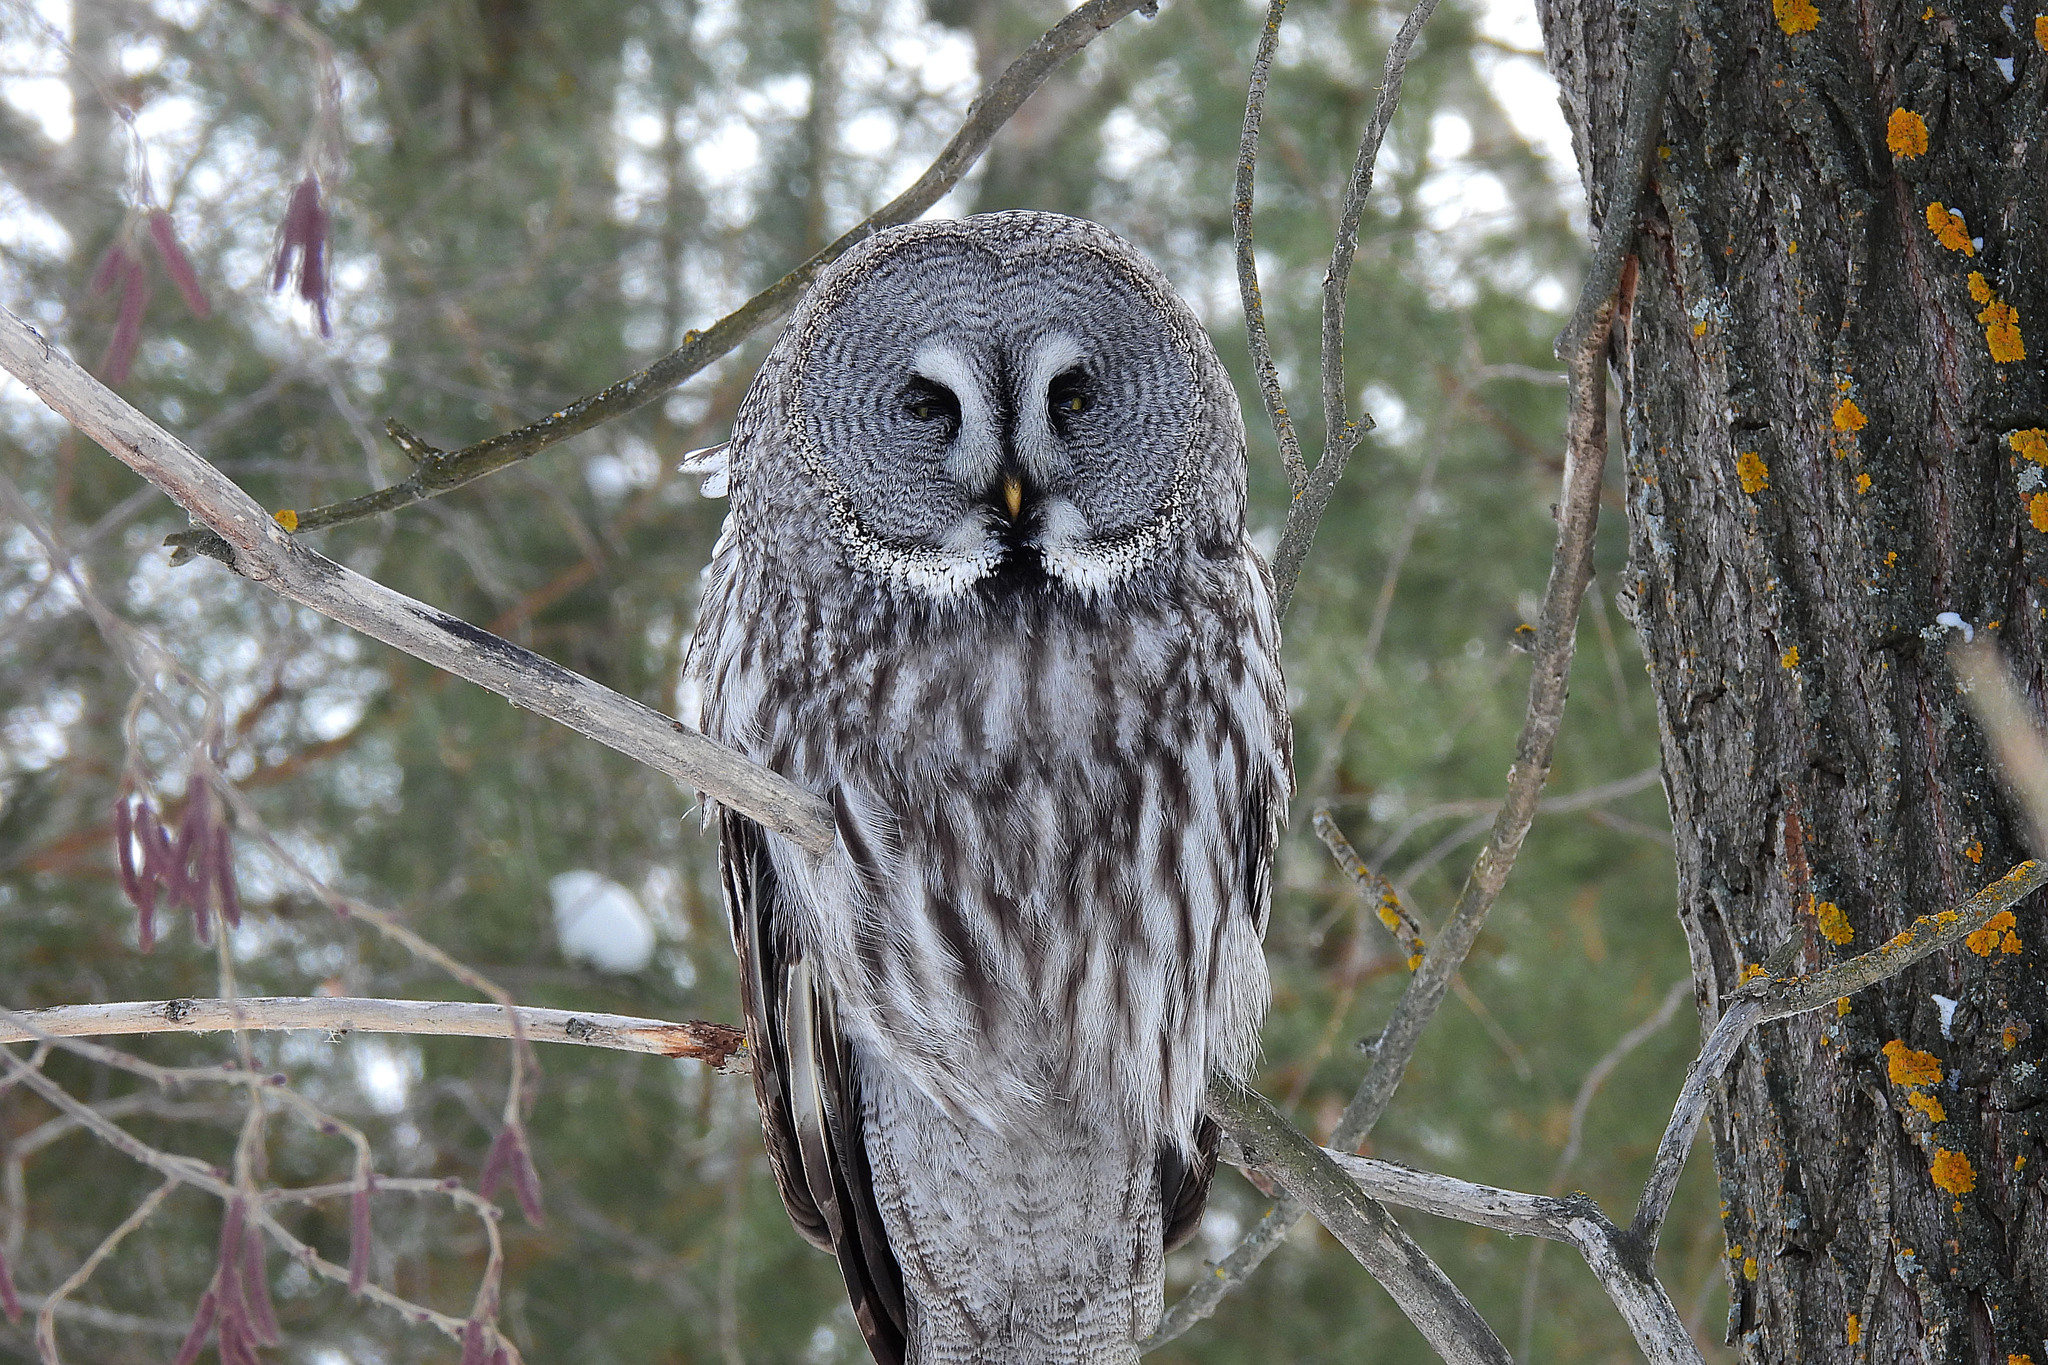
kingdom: Animalia
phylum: Chordata
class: Aves
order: Strigiformes
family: Strigidae
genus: Strix
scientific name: Strix nebulosa
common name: Great grey owl
